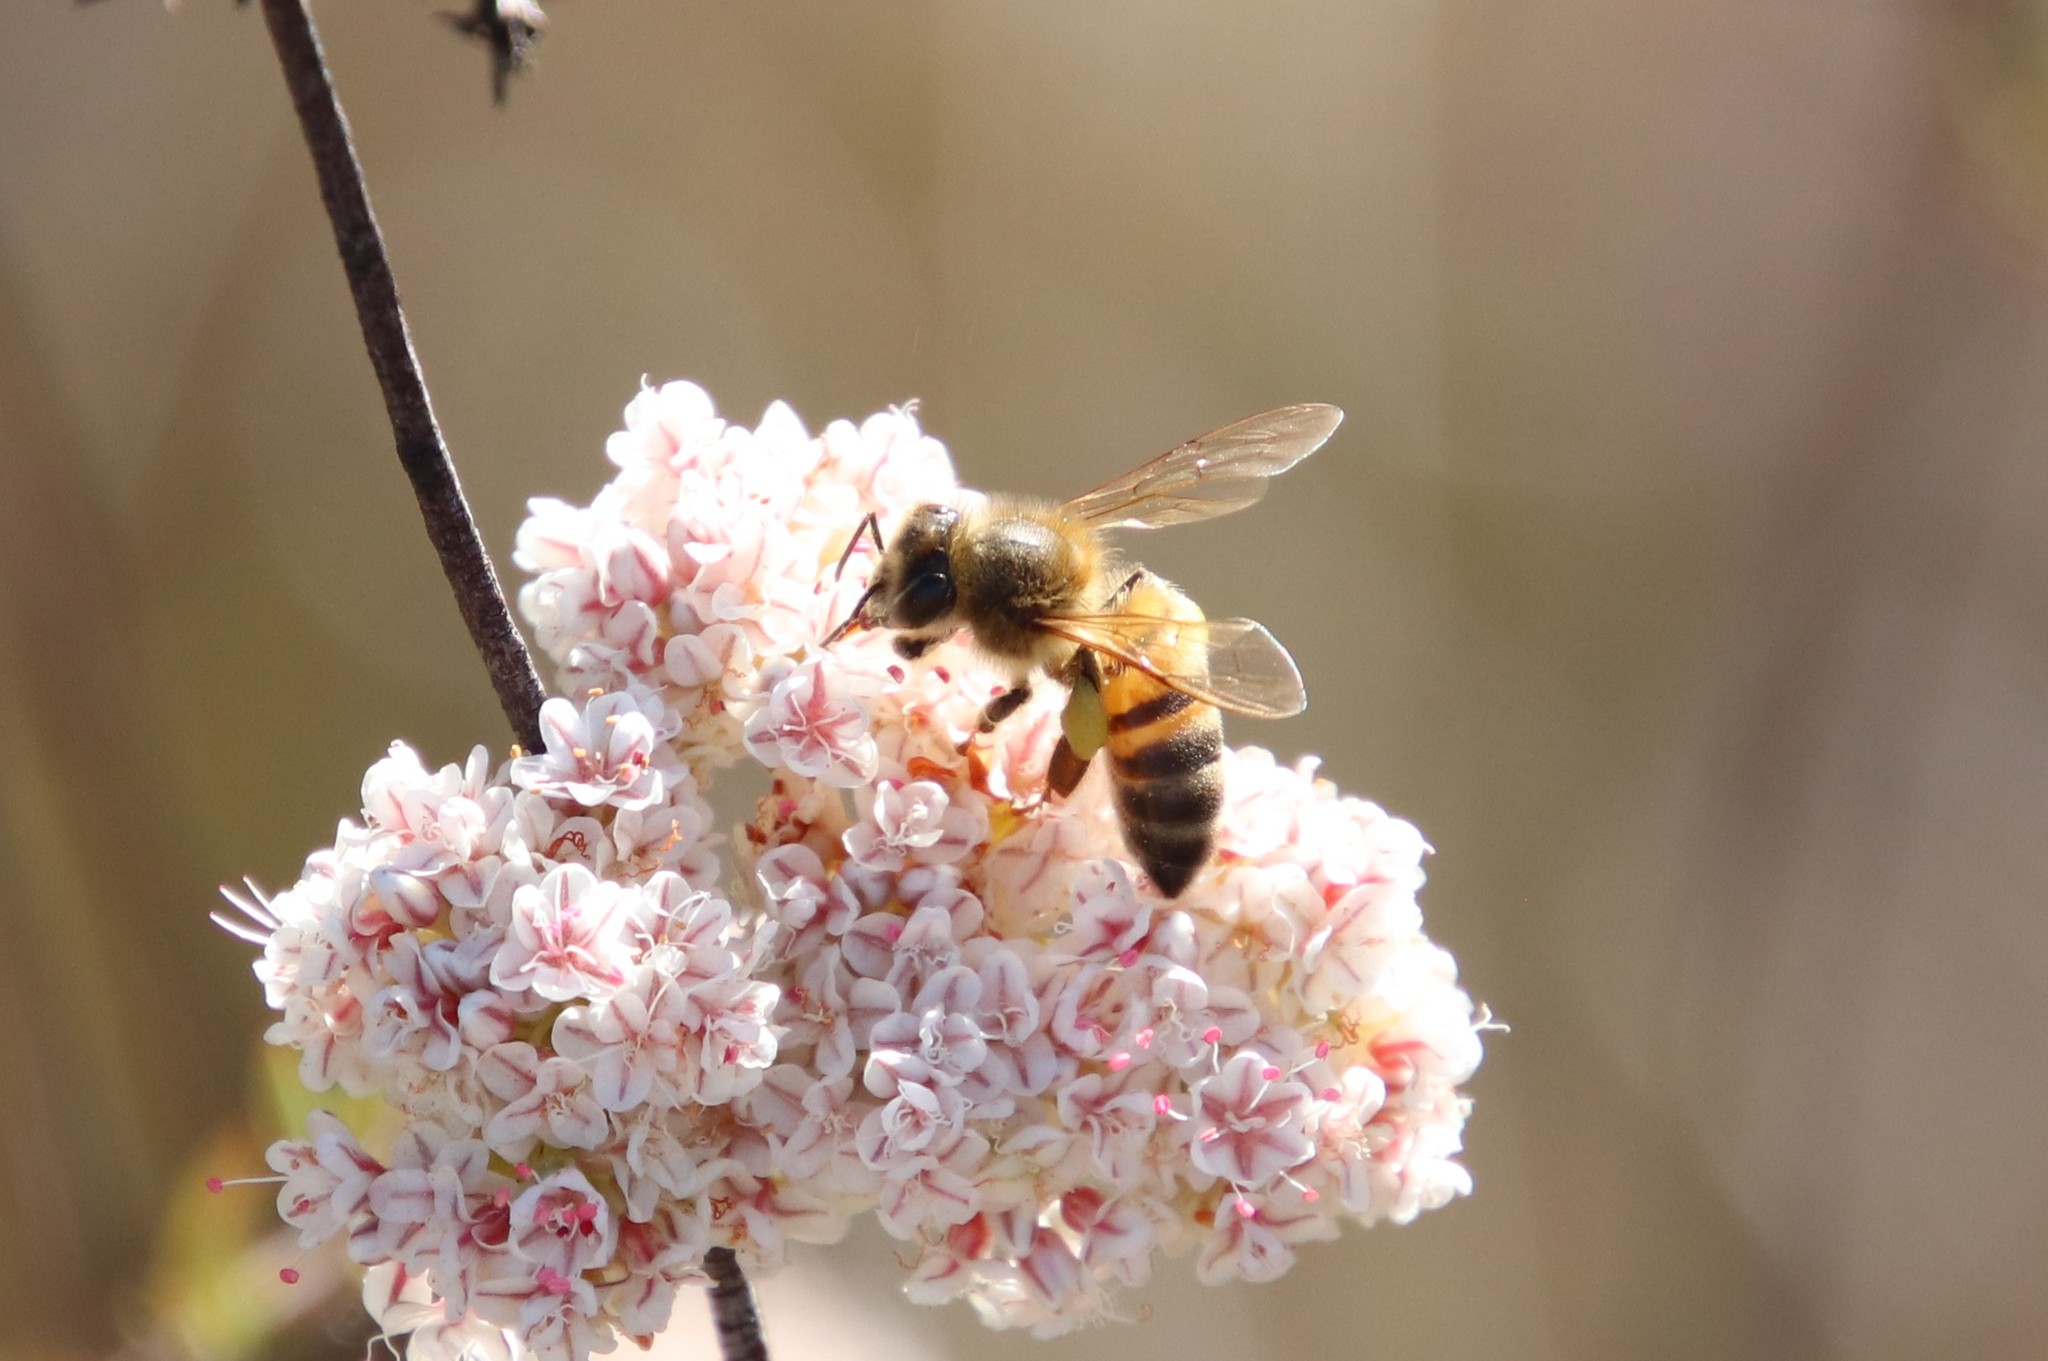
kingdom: Animalia
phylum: Arthropoda
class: Insecta
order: Hymenoptera
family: Apidae
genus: Apis
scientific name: Apis mellifera
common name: Honey bee
